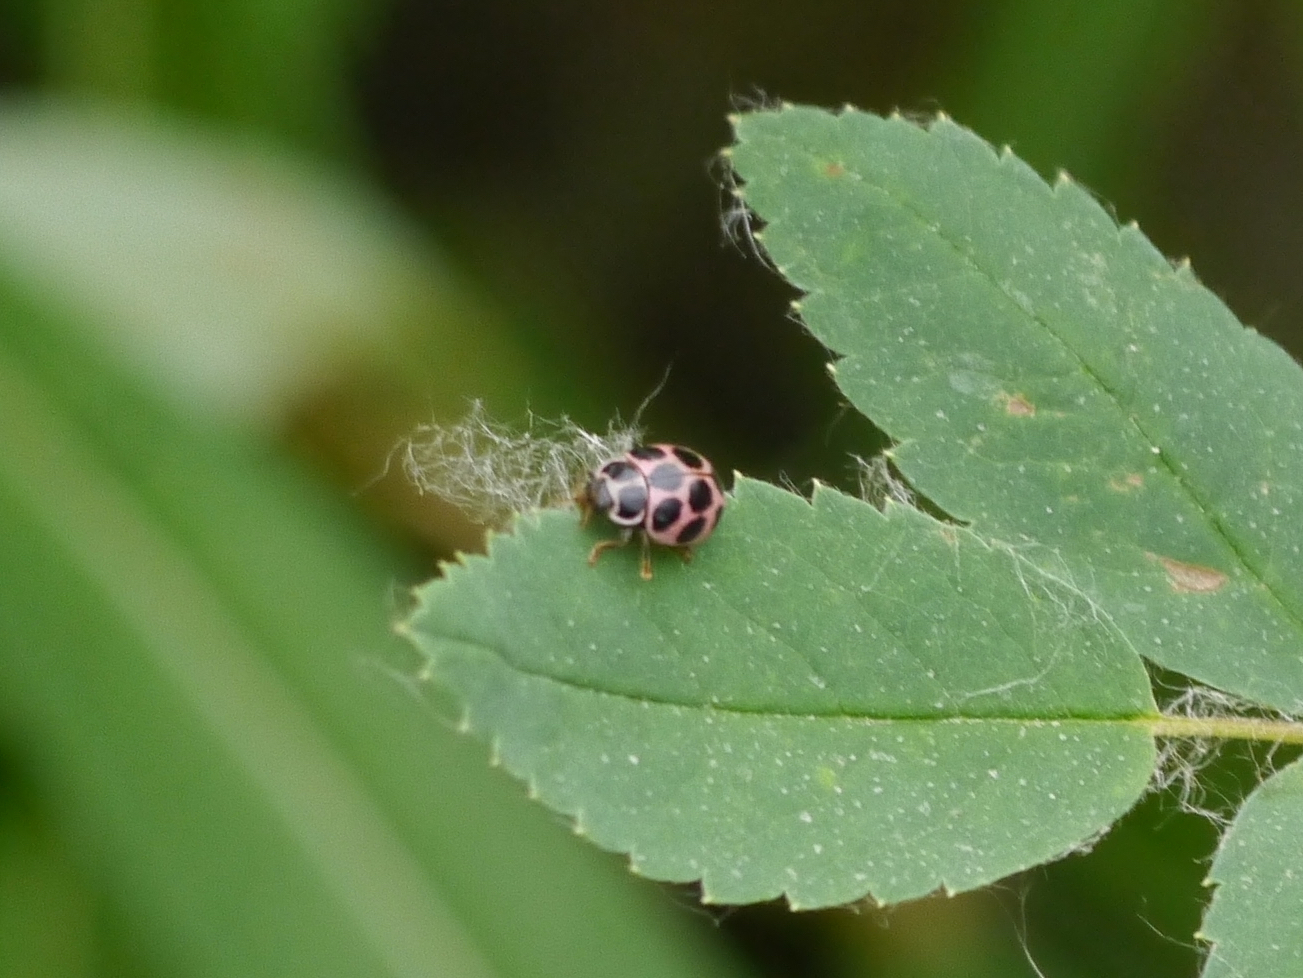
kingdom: Animalia
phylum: Arthropoda
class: Insecta
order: Coleoptera
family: Coccinellidae
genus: Calvia
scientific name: Calvia quatuordecimguttata
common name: Cream-spot ladybird
